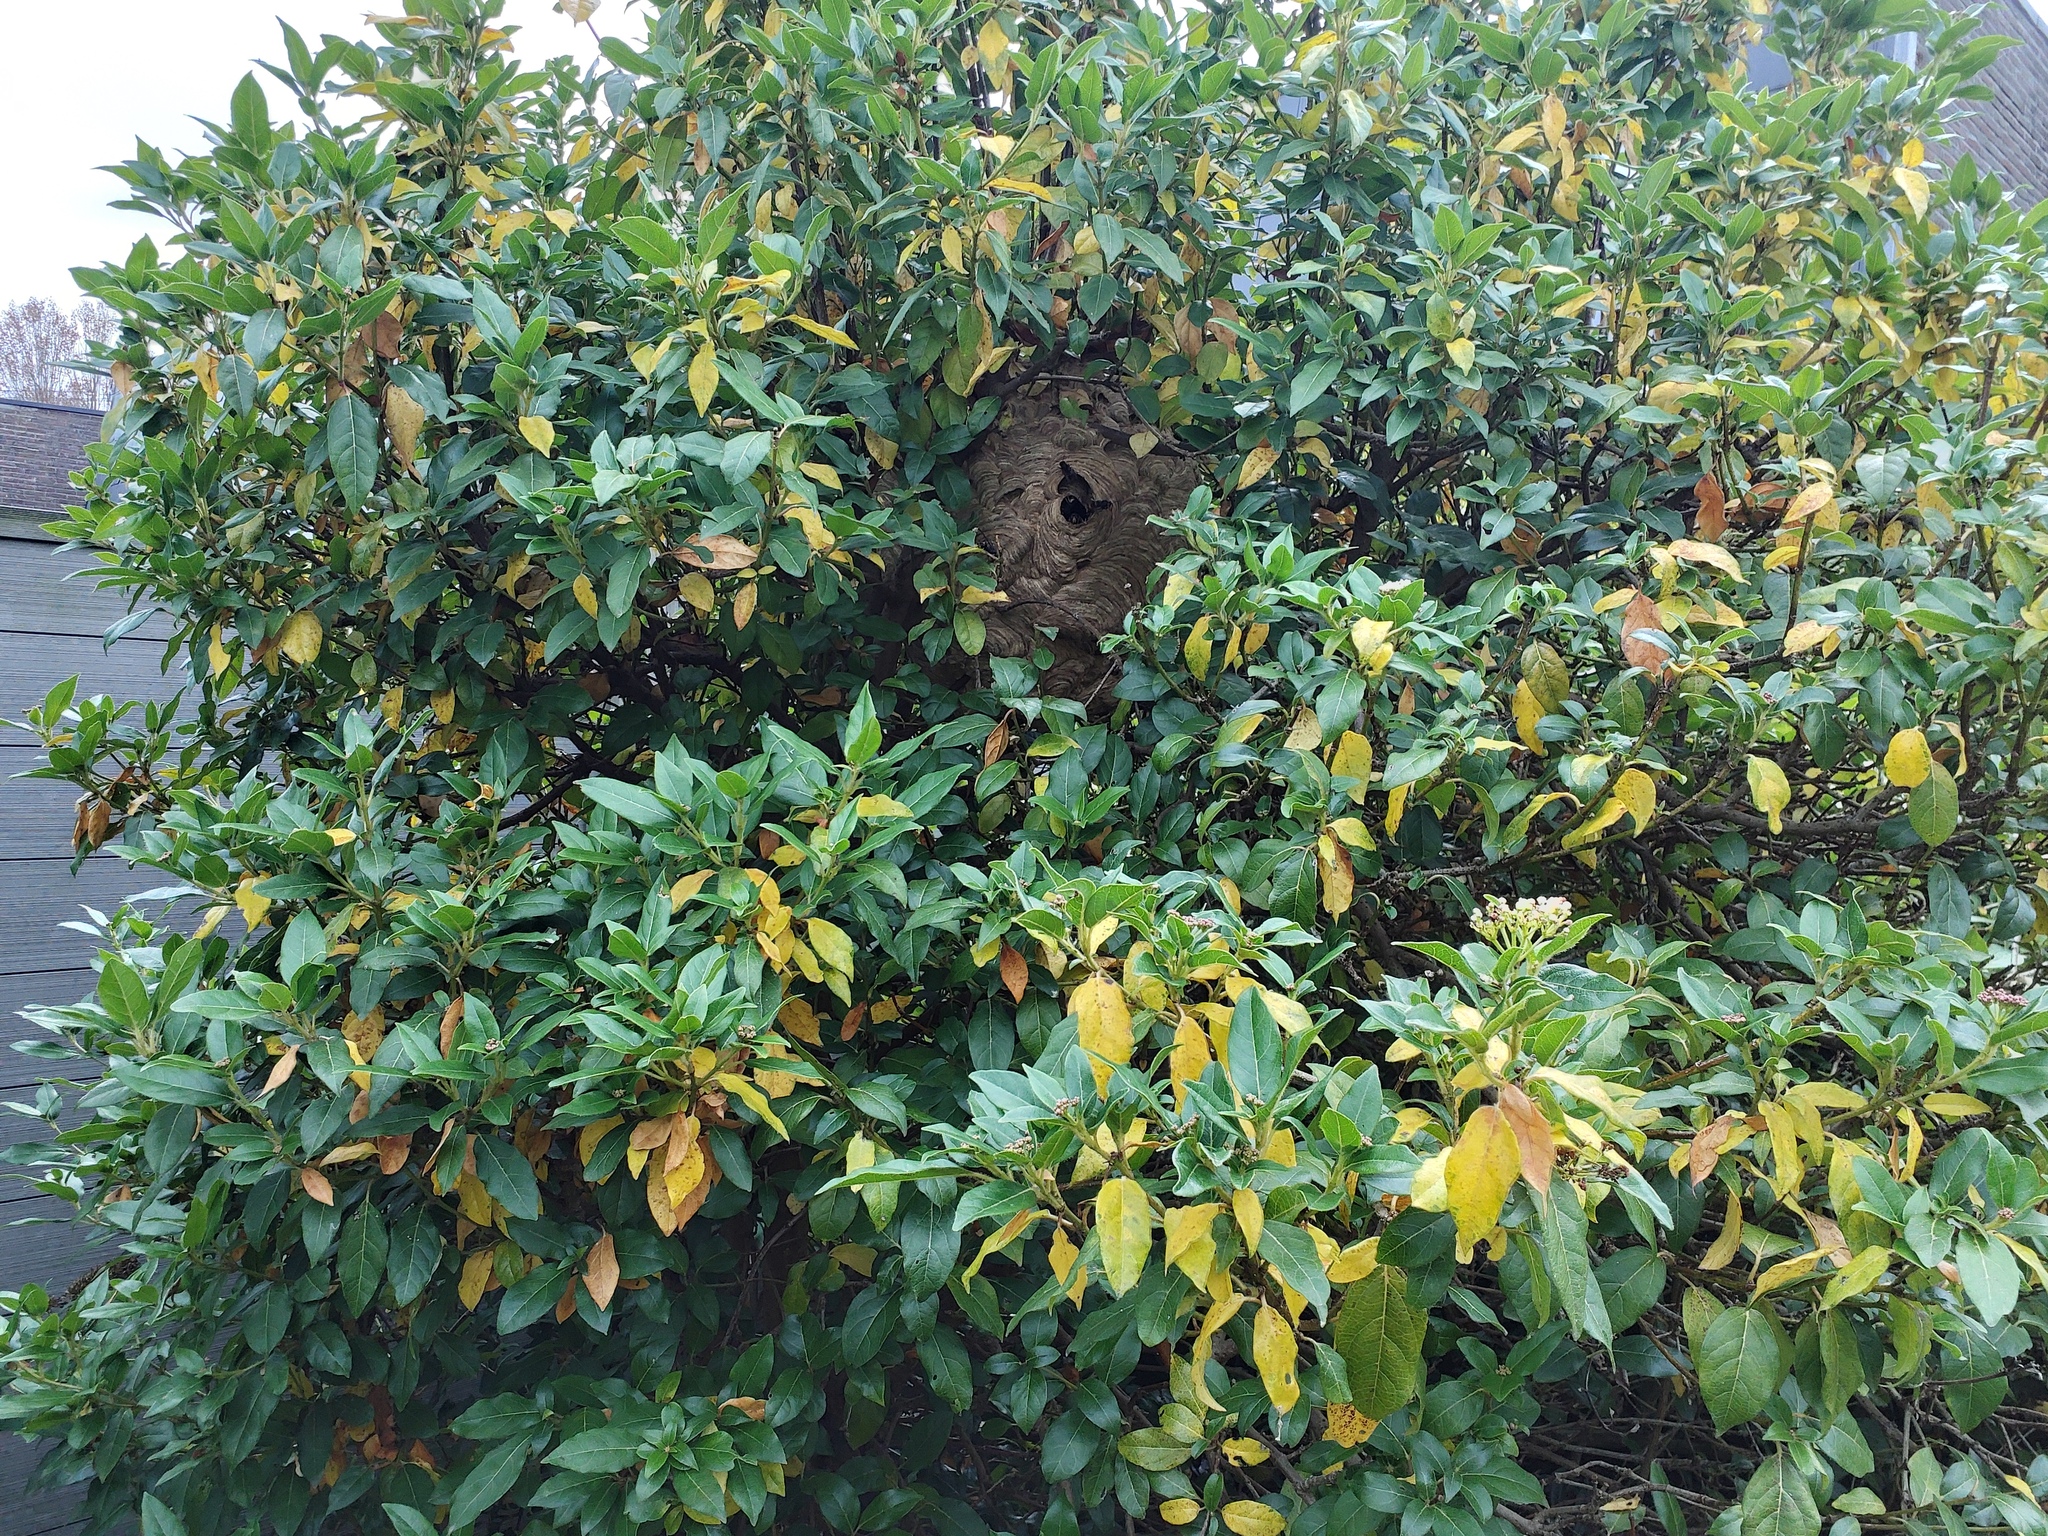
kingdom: Animalia
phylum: Arthropoda
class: Insecta
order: Hymenoptera
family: Vespidae
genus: Vespa
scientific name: Vespa velutina
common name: Asian hornet
